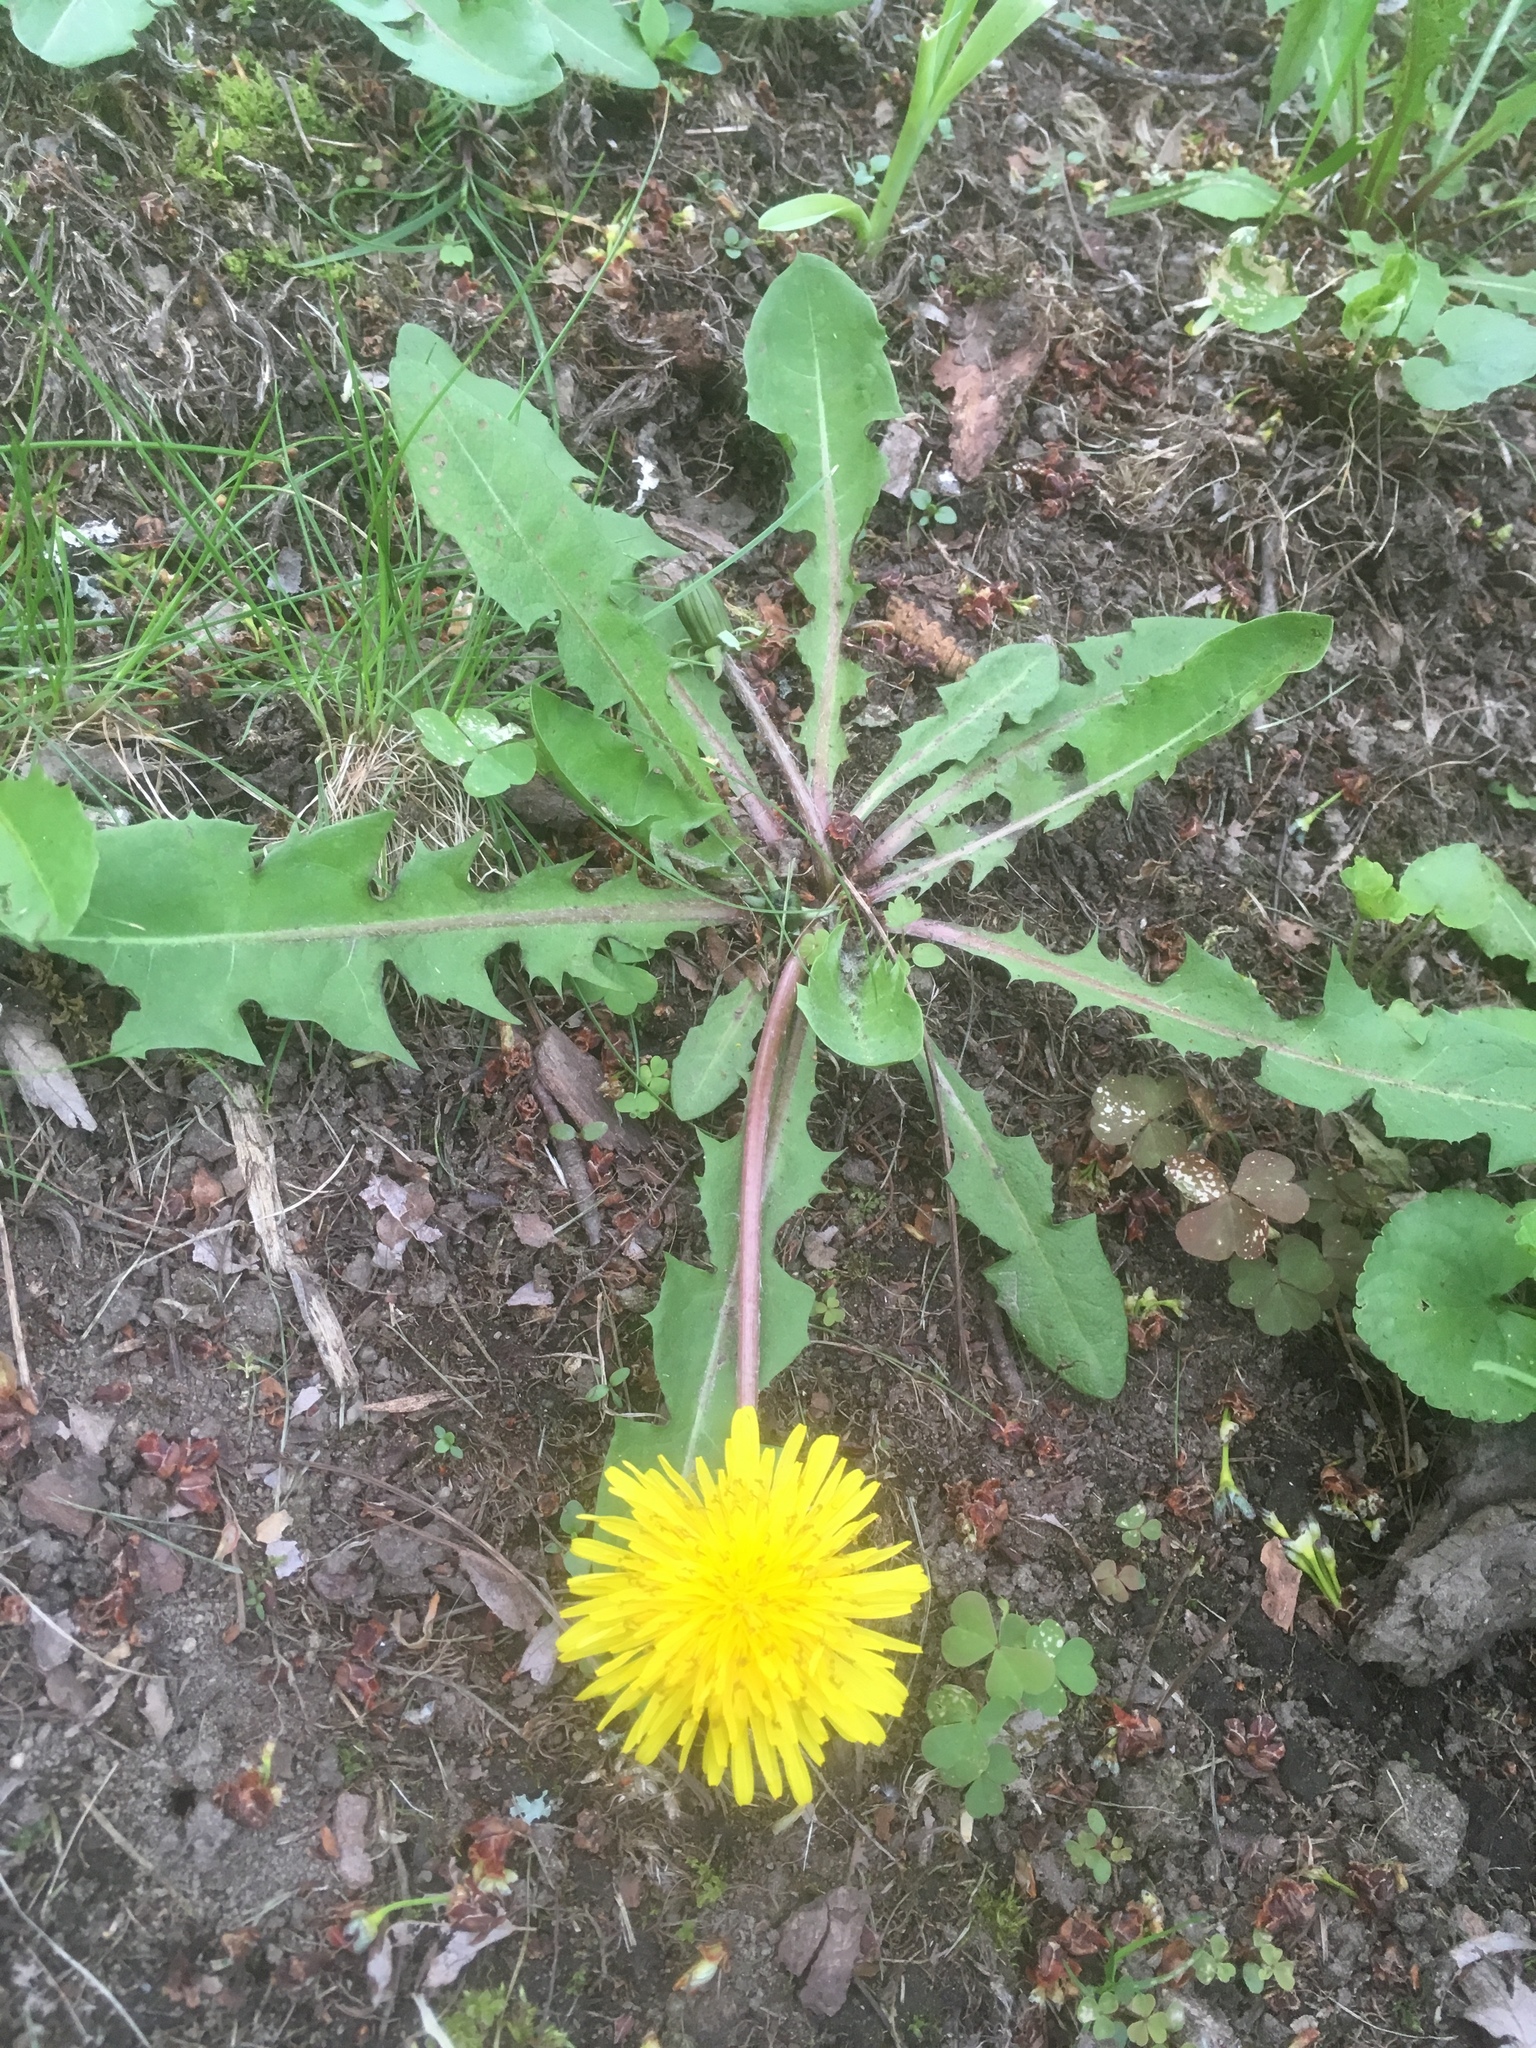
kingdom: Plantae
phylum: Tracheophyta
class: Magnoliopsida
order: Asterales
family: Asteraceae
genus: Taraxacum
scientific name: Taraxacum officinale
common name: Common dandelion
